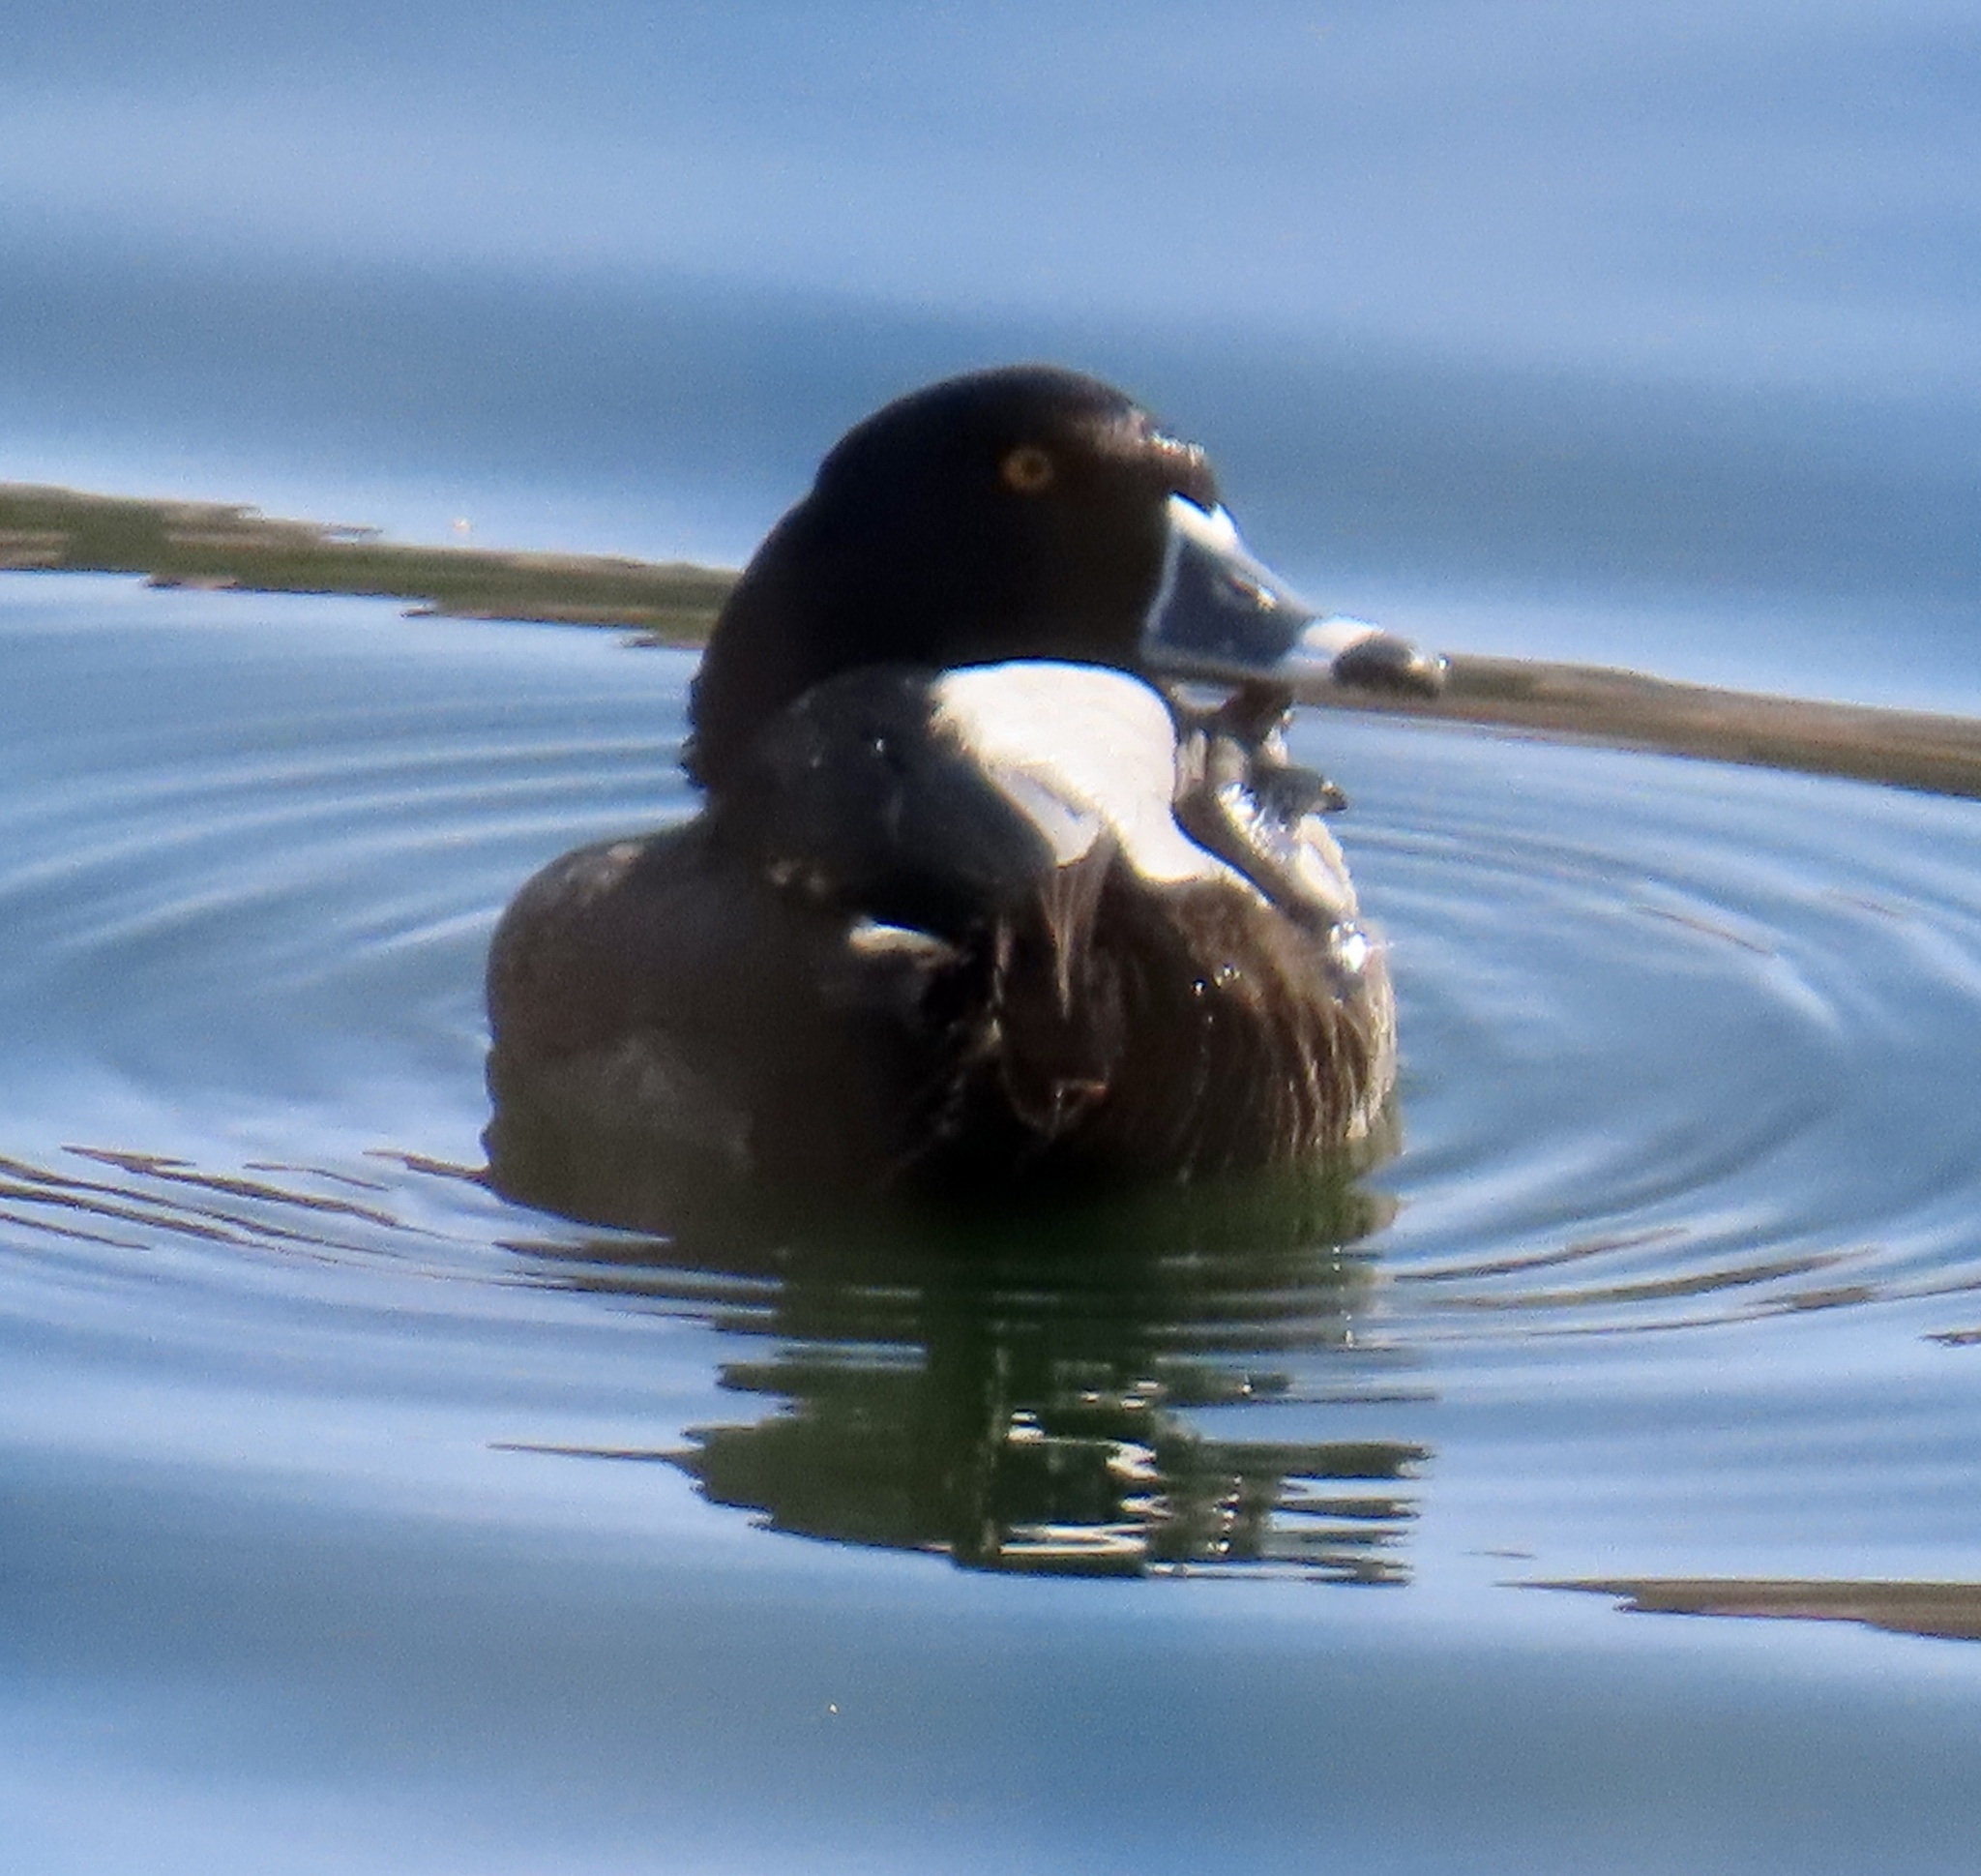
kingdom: Animalia
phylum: Chordata
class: Aves
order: Anseriformes
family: Anatidae
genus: Aythya
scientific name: Aythya collaris
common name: Ring-necked duck
